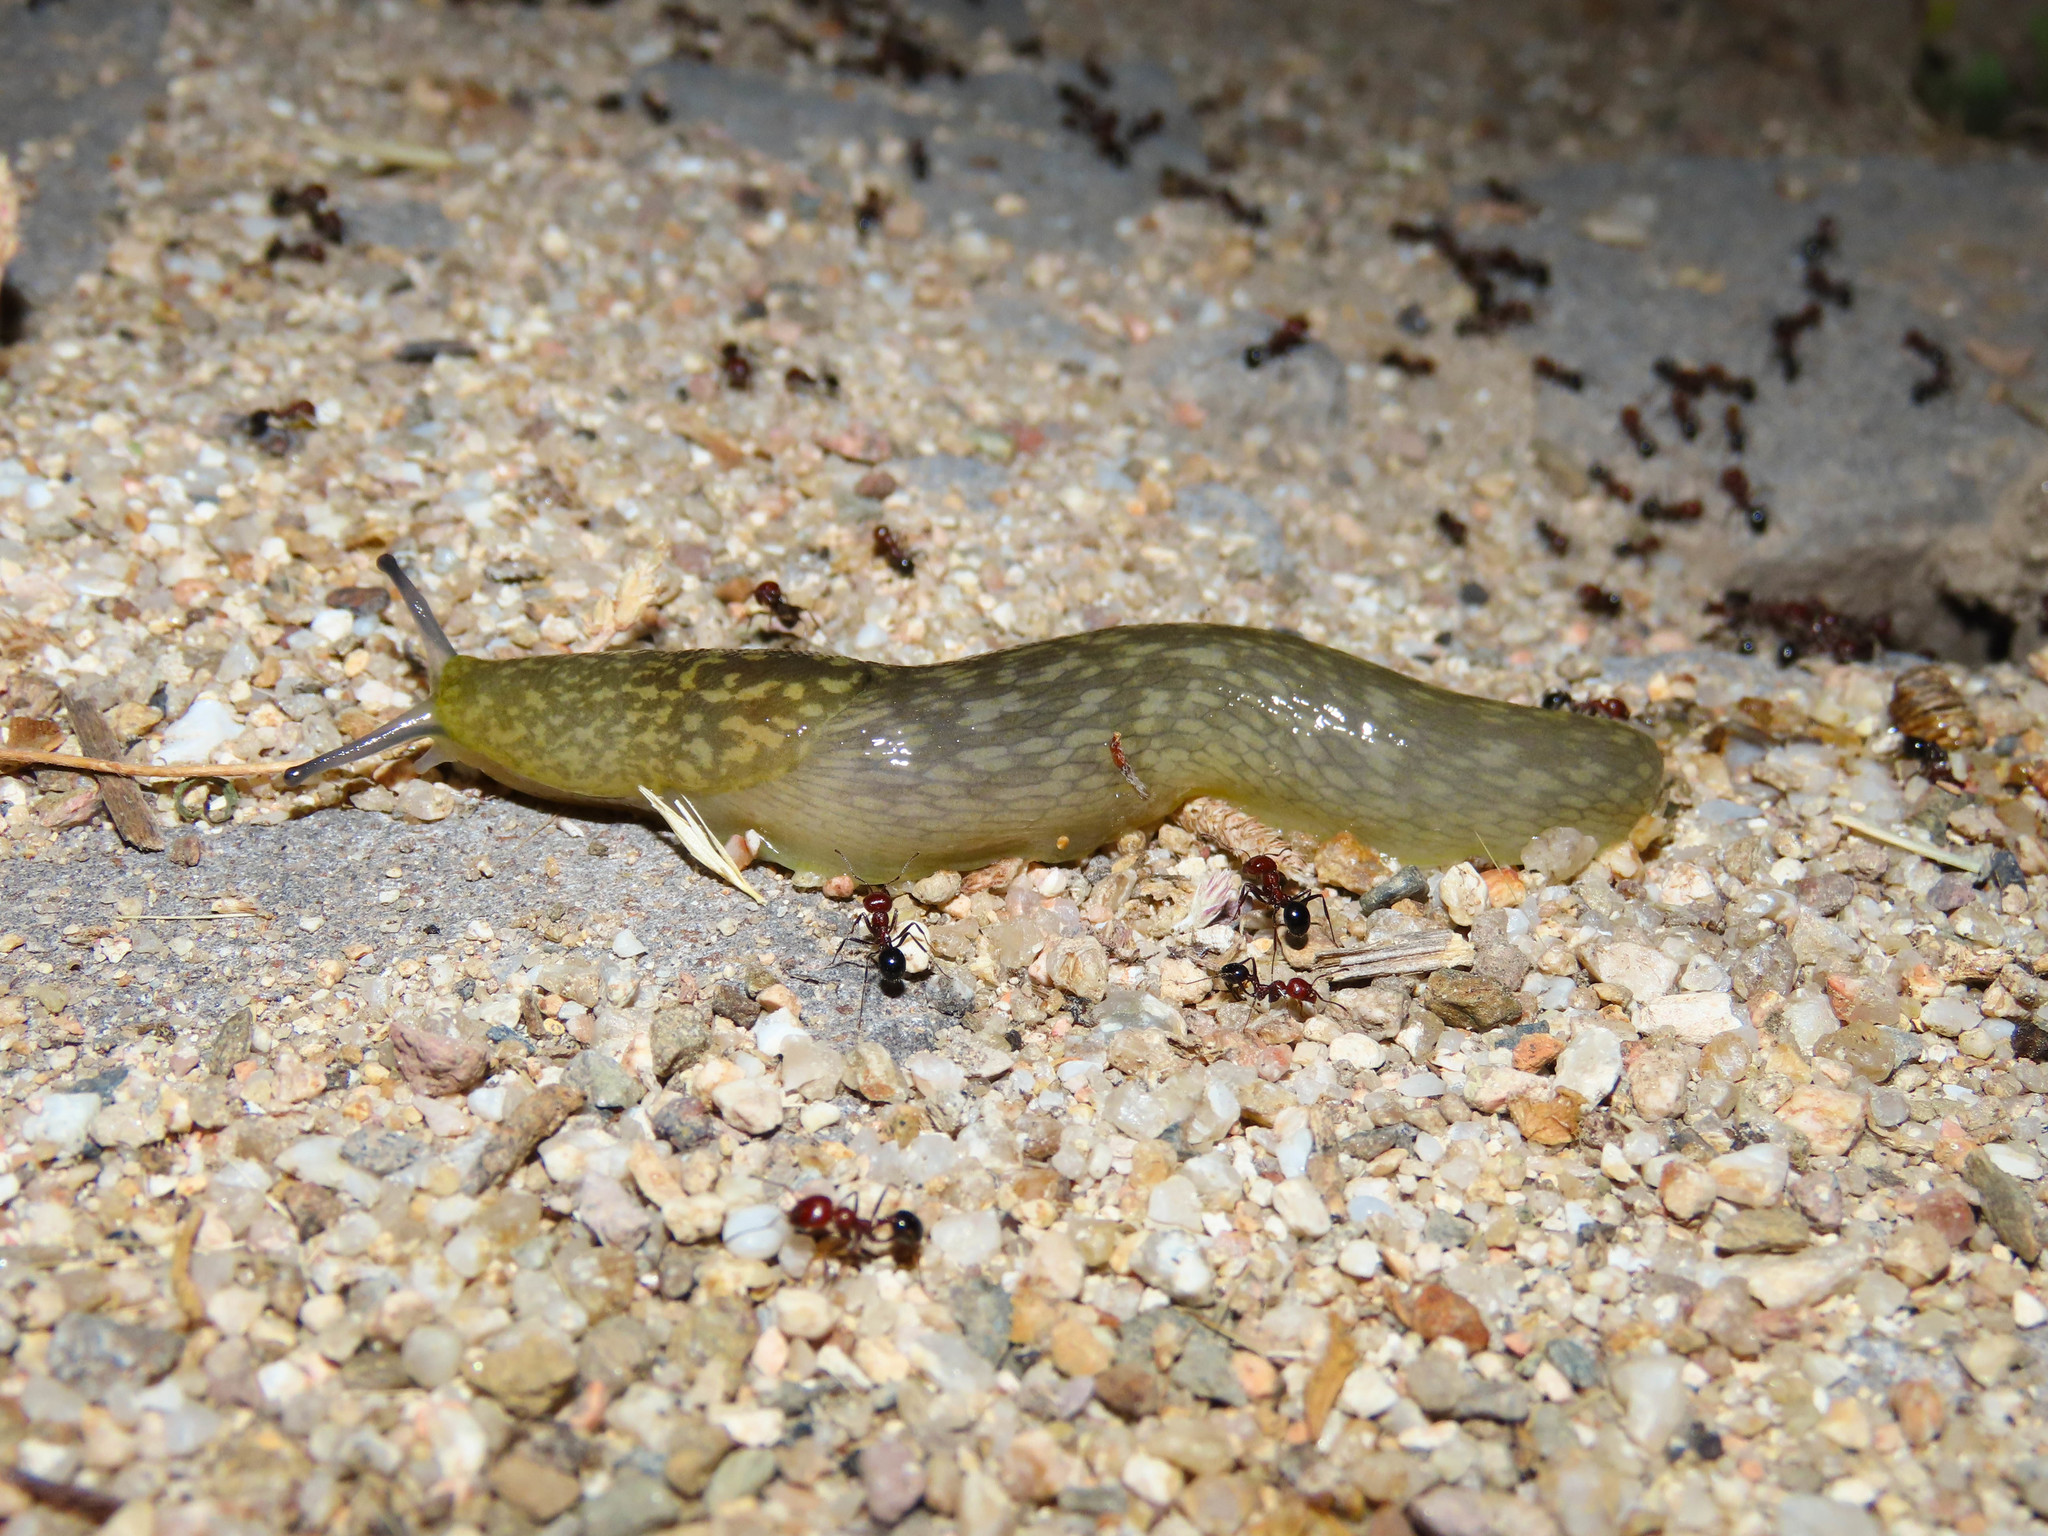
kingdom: Animalia
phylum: Mollusca
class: Gastropoda
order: Stylommatophora
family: Limacidae
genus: Limacus
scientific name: Limacus flavus
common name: Yellow gardenslug
